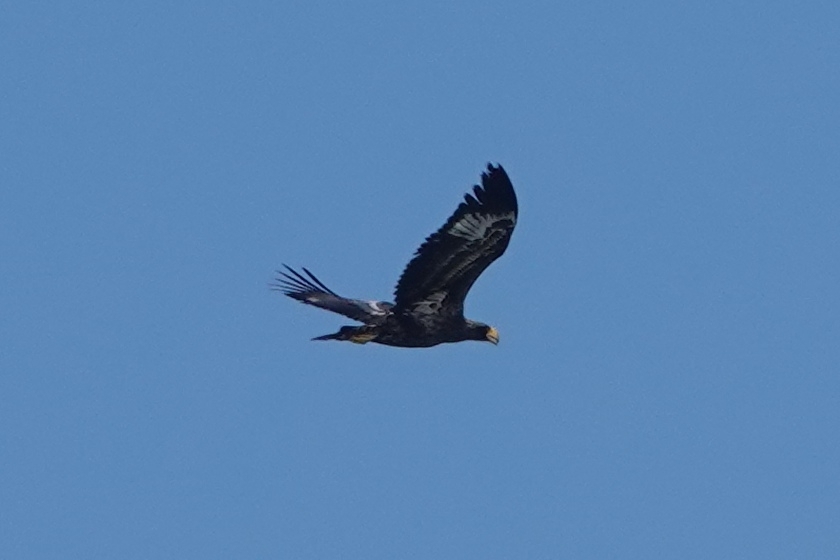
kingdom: Animalia
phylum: Chordata
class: Aves
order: Accipitriformes
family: Accipitridae
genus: Haliaeetus
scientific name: Haliaeetus pelagicus
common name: Steller's sea eagle
